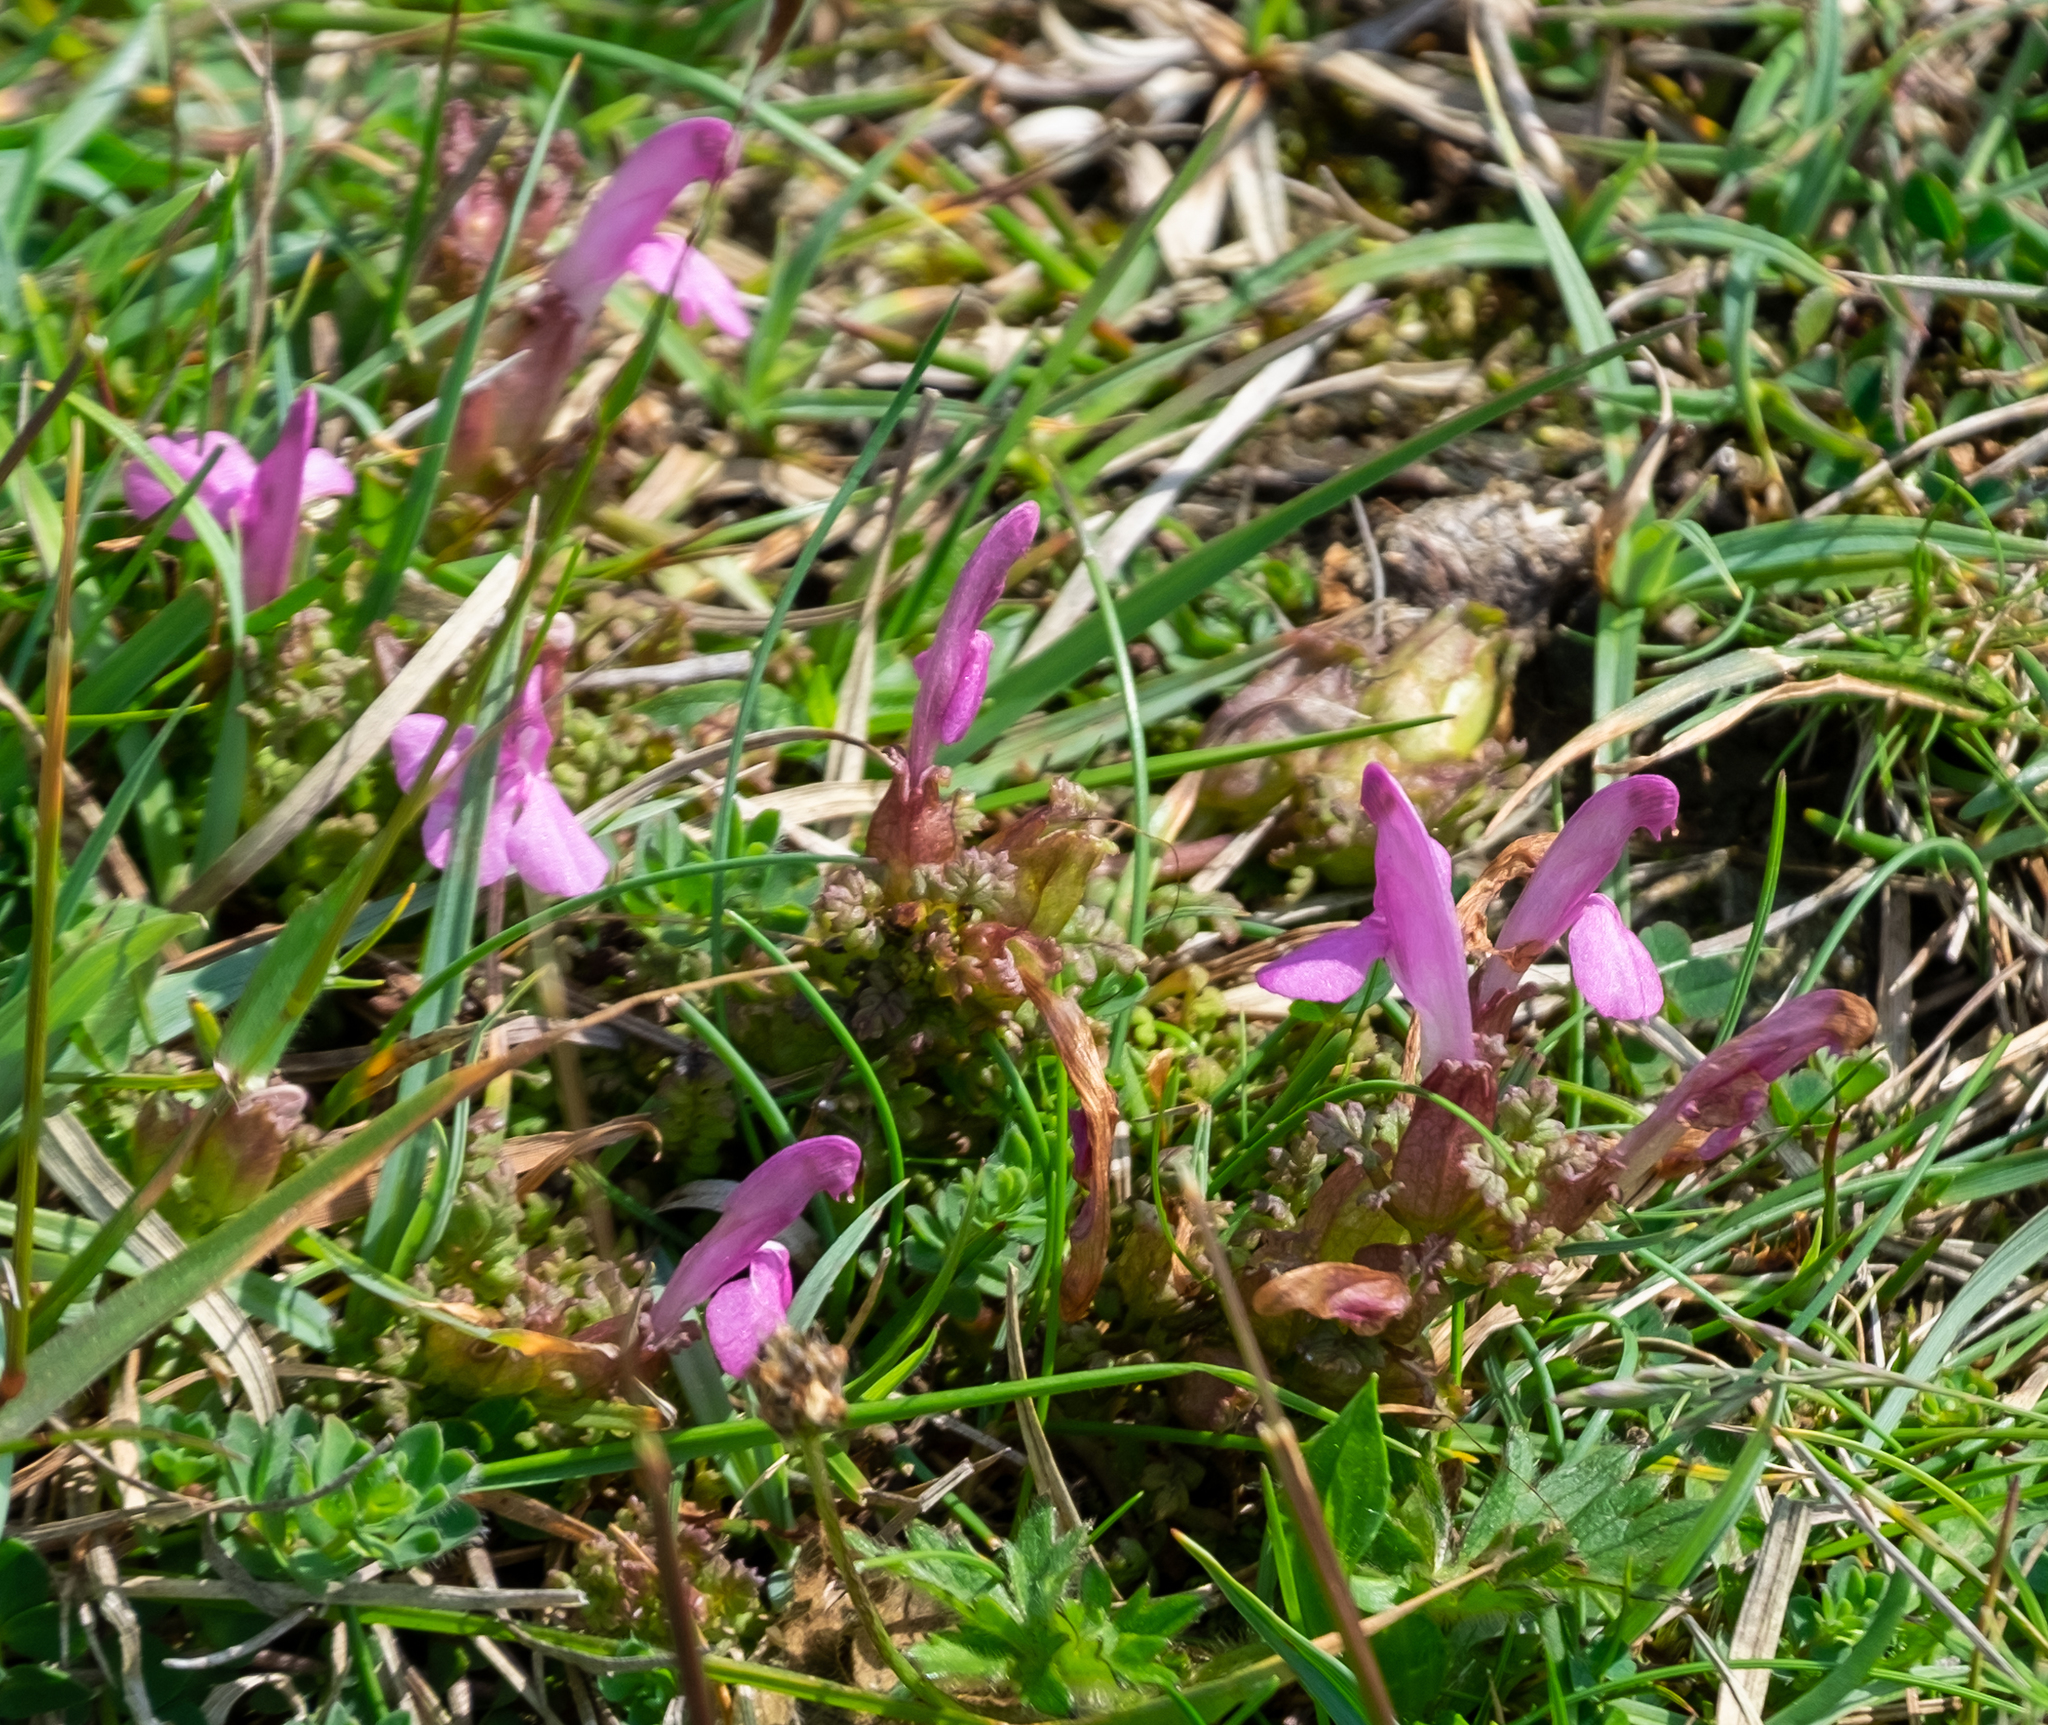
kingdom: Plantae
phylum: Tracheophyta
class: Magnoliopsida
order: Lamiales
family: Orobanchaceae
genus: Pedicularis
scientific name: Pedicularis sylvatica
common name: Lousewort
